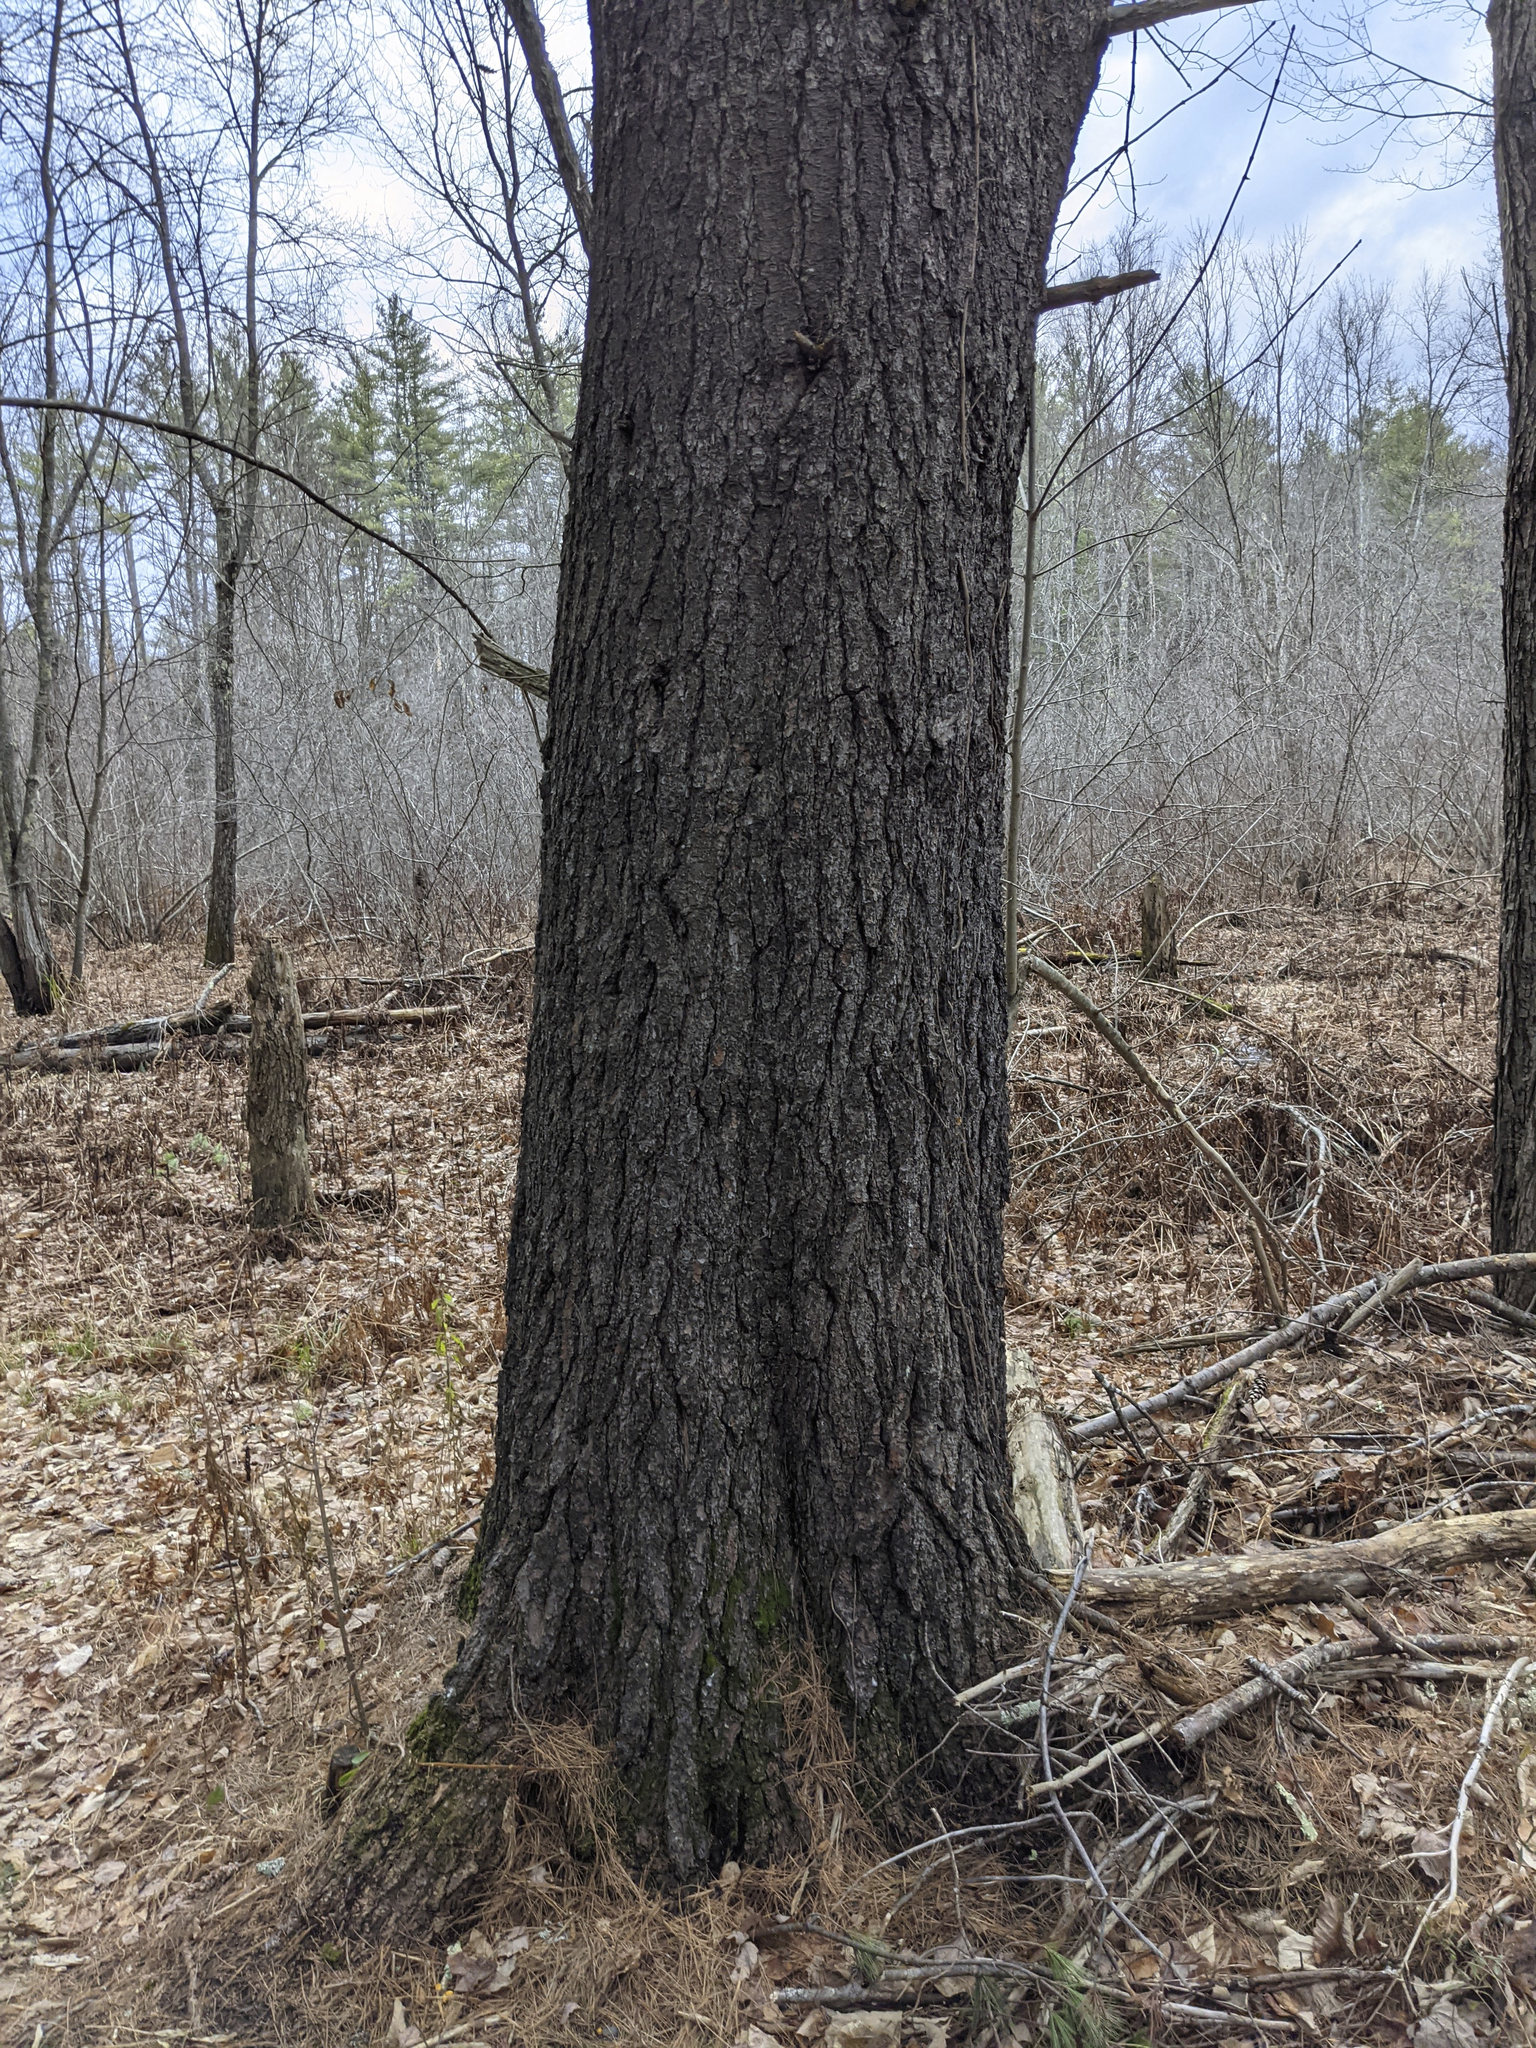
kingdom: Plantae
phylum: Tracheophyta
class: Pinopsida
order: Pinales
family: Pinaceae
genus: Pinus
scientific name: Pinus strobus
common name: Weymouth pine
